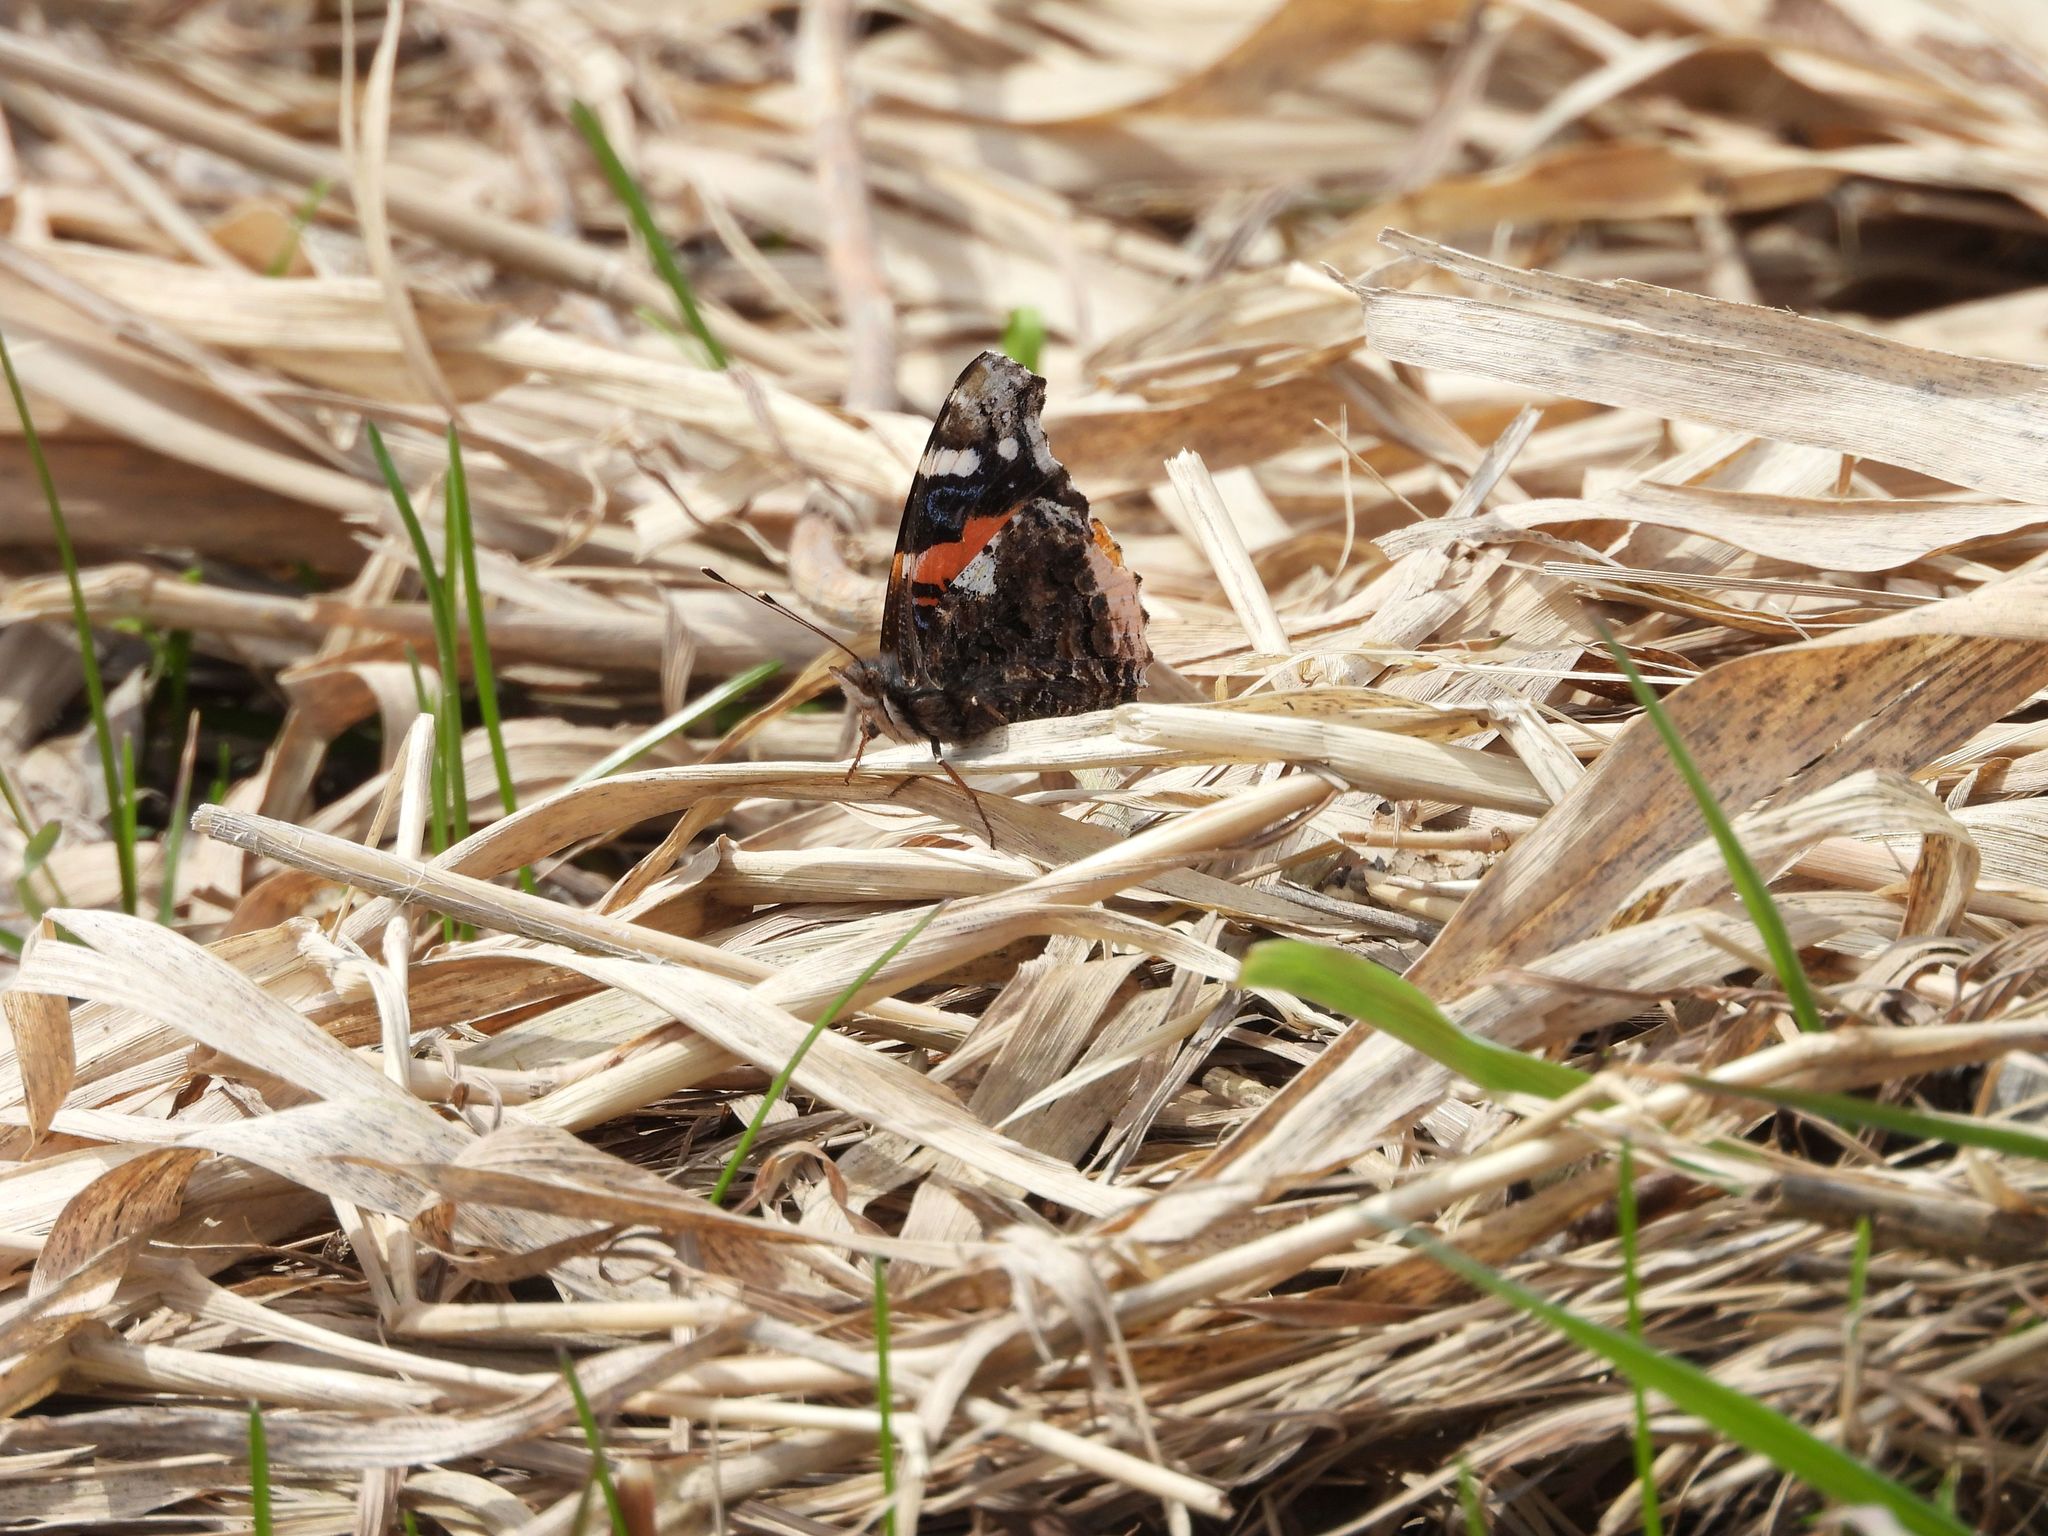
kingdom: Animalia
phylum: Arthropoda
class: Insecta
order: Lepidoptera
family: Nymphalidae
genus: Vanessa
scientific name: Vanessa atalanta
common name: Red admiral
